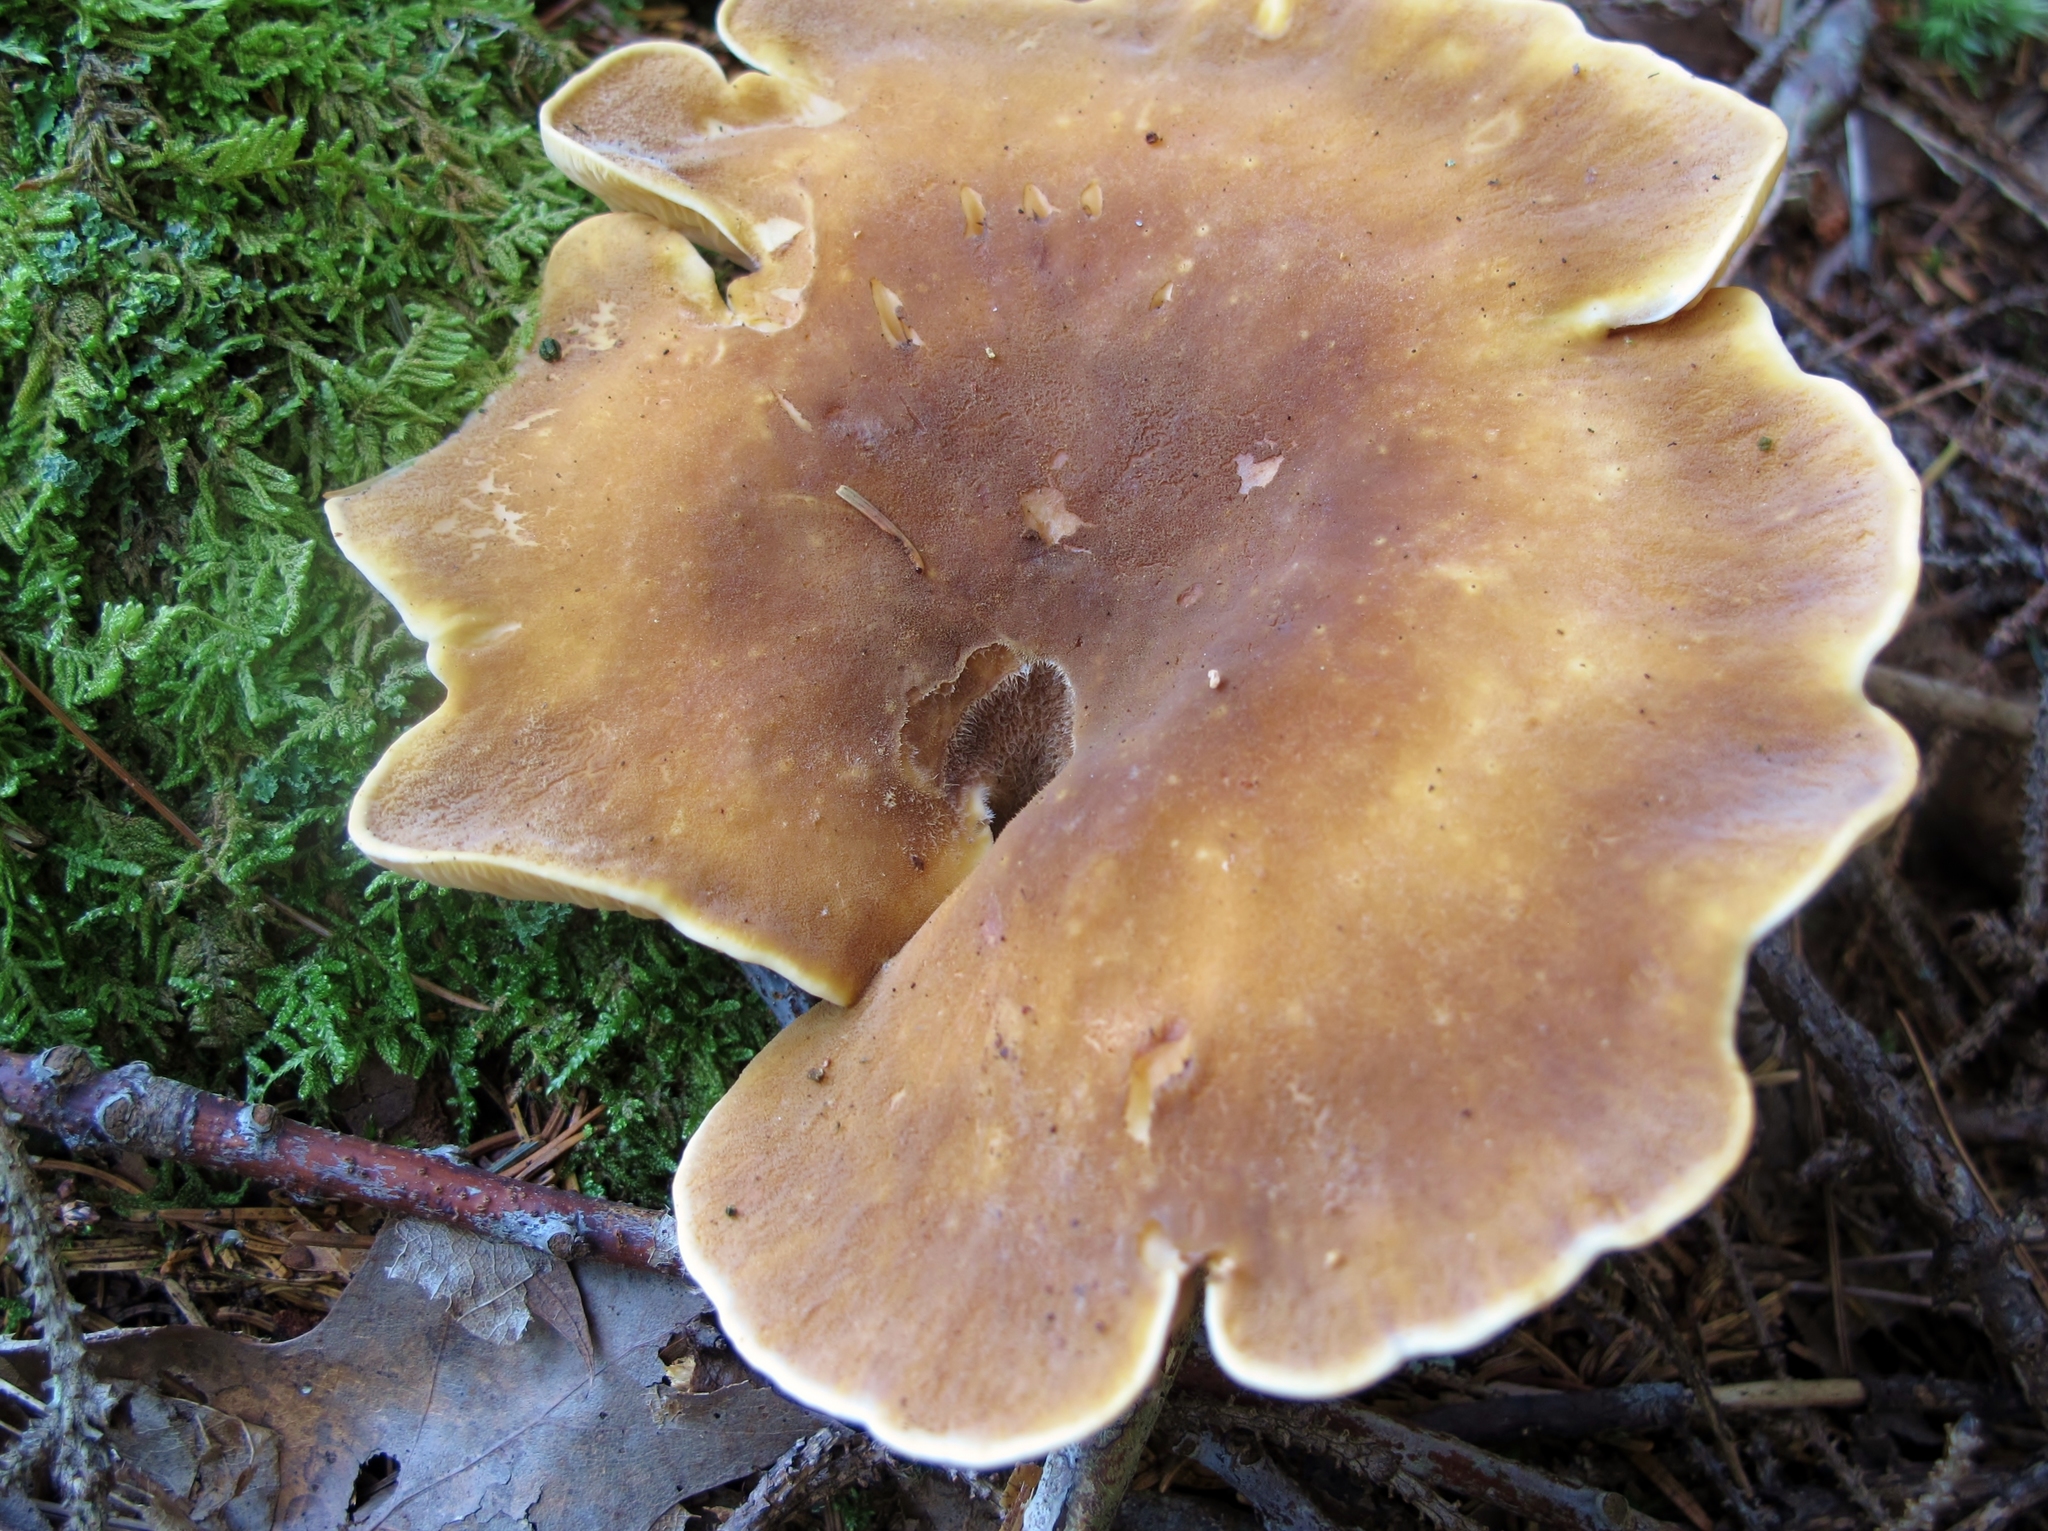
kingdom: Fungi
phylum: Basidiomycota
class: Agaricomycetes
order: Boletales
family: Tapinellaceae
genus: Tapinella
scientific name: Tapinella atrotomentosa
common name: Velvet rollrim
